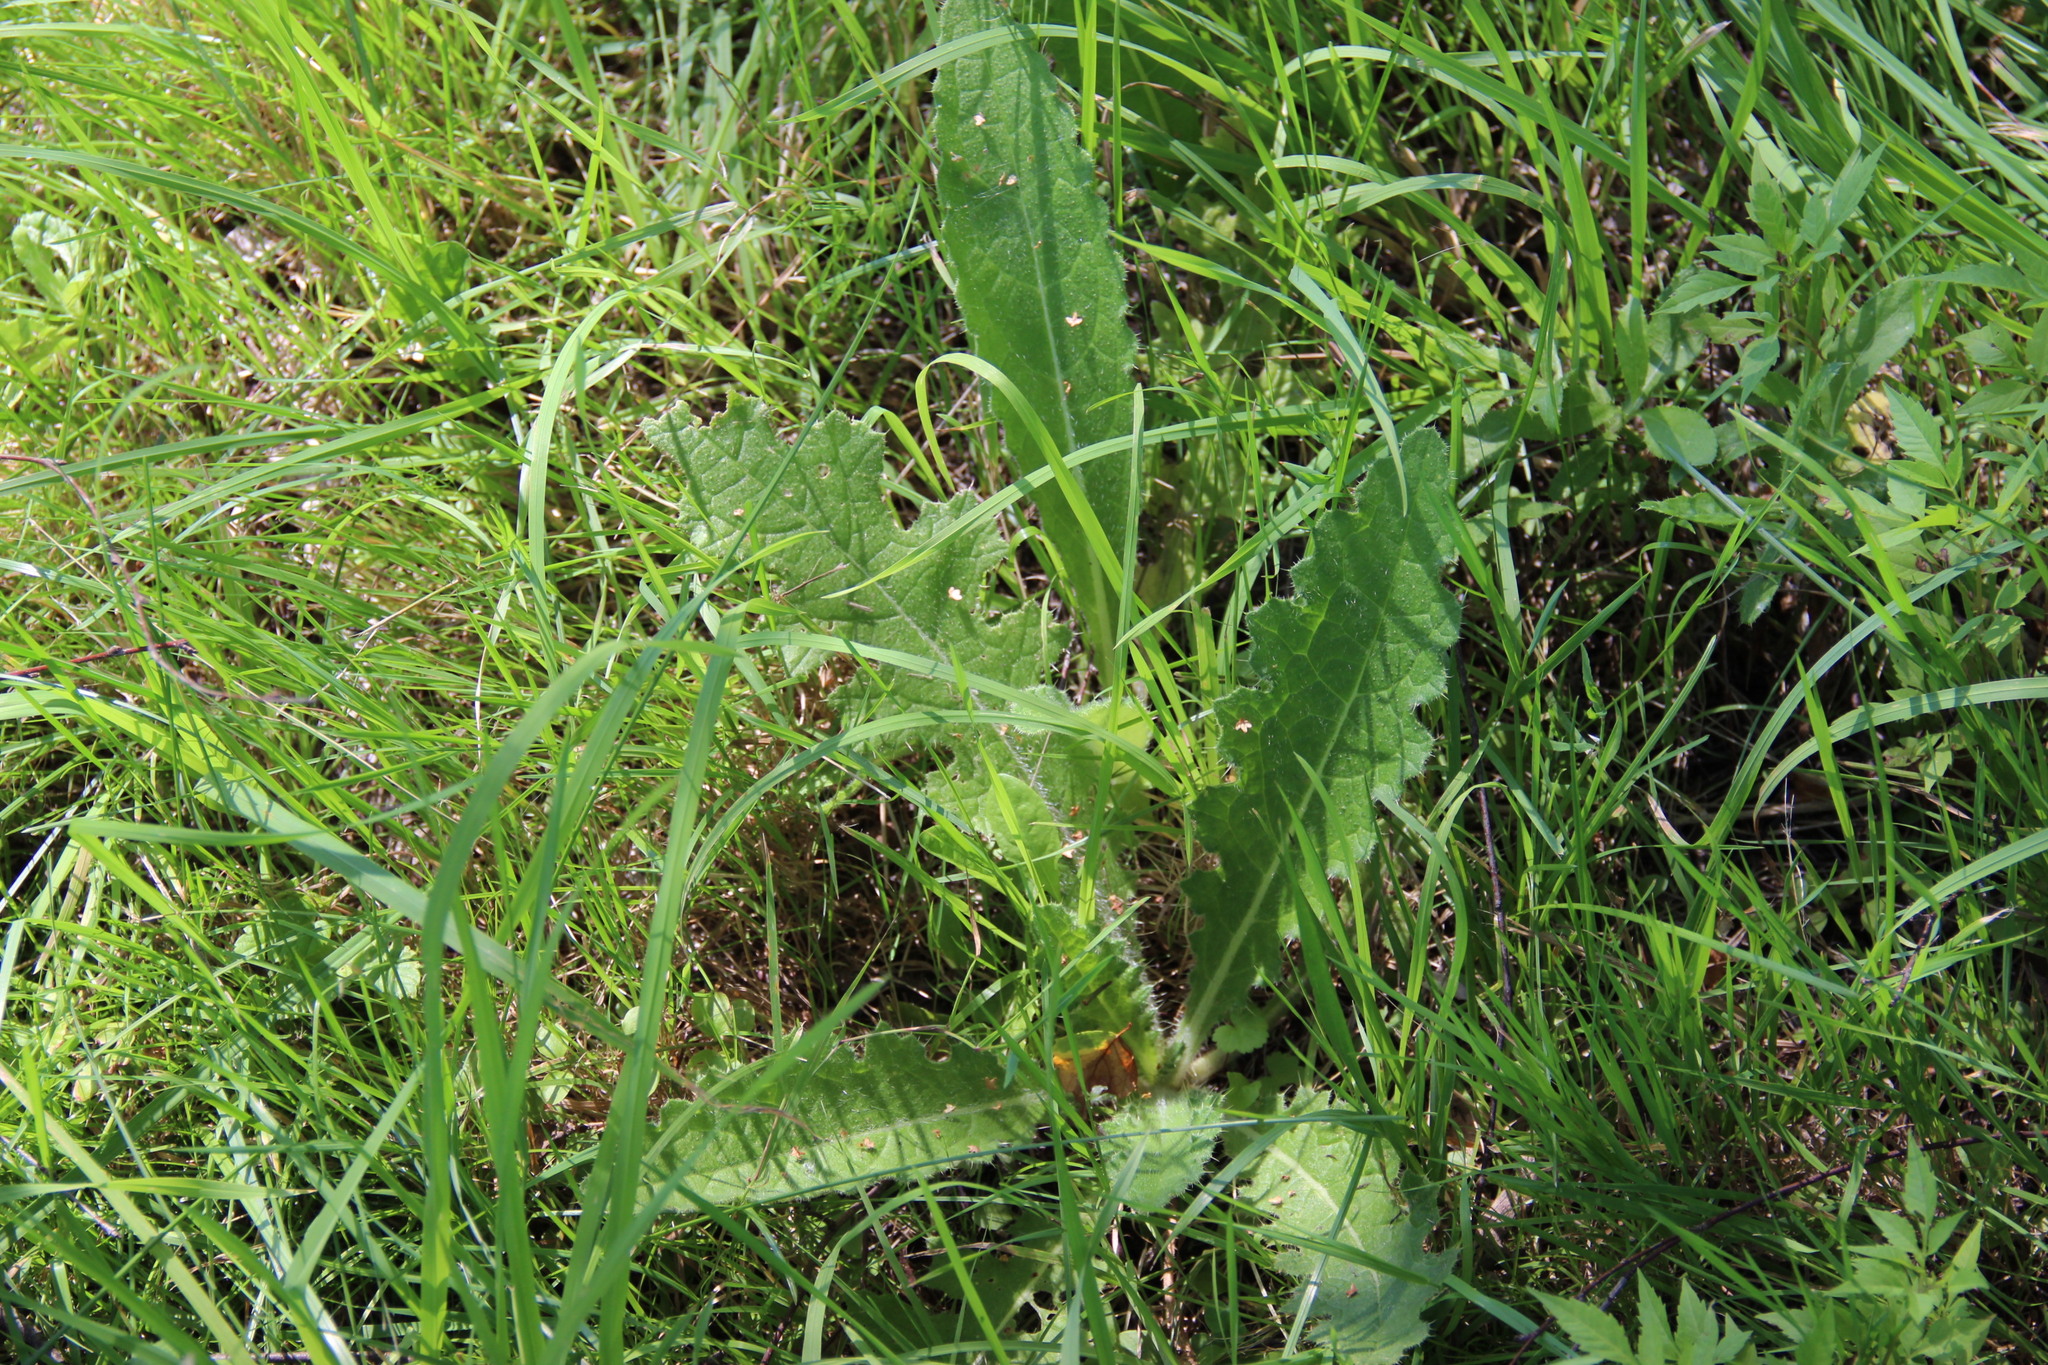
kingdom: Plantae
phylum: Tracheophyta
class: Magnoliopsida
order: Asterales
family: Asteraceae
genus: Cirsium
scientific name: Cirsium vulgare
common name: Bull thistle
